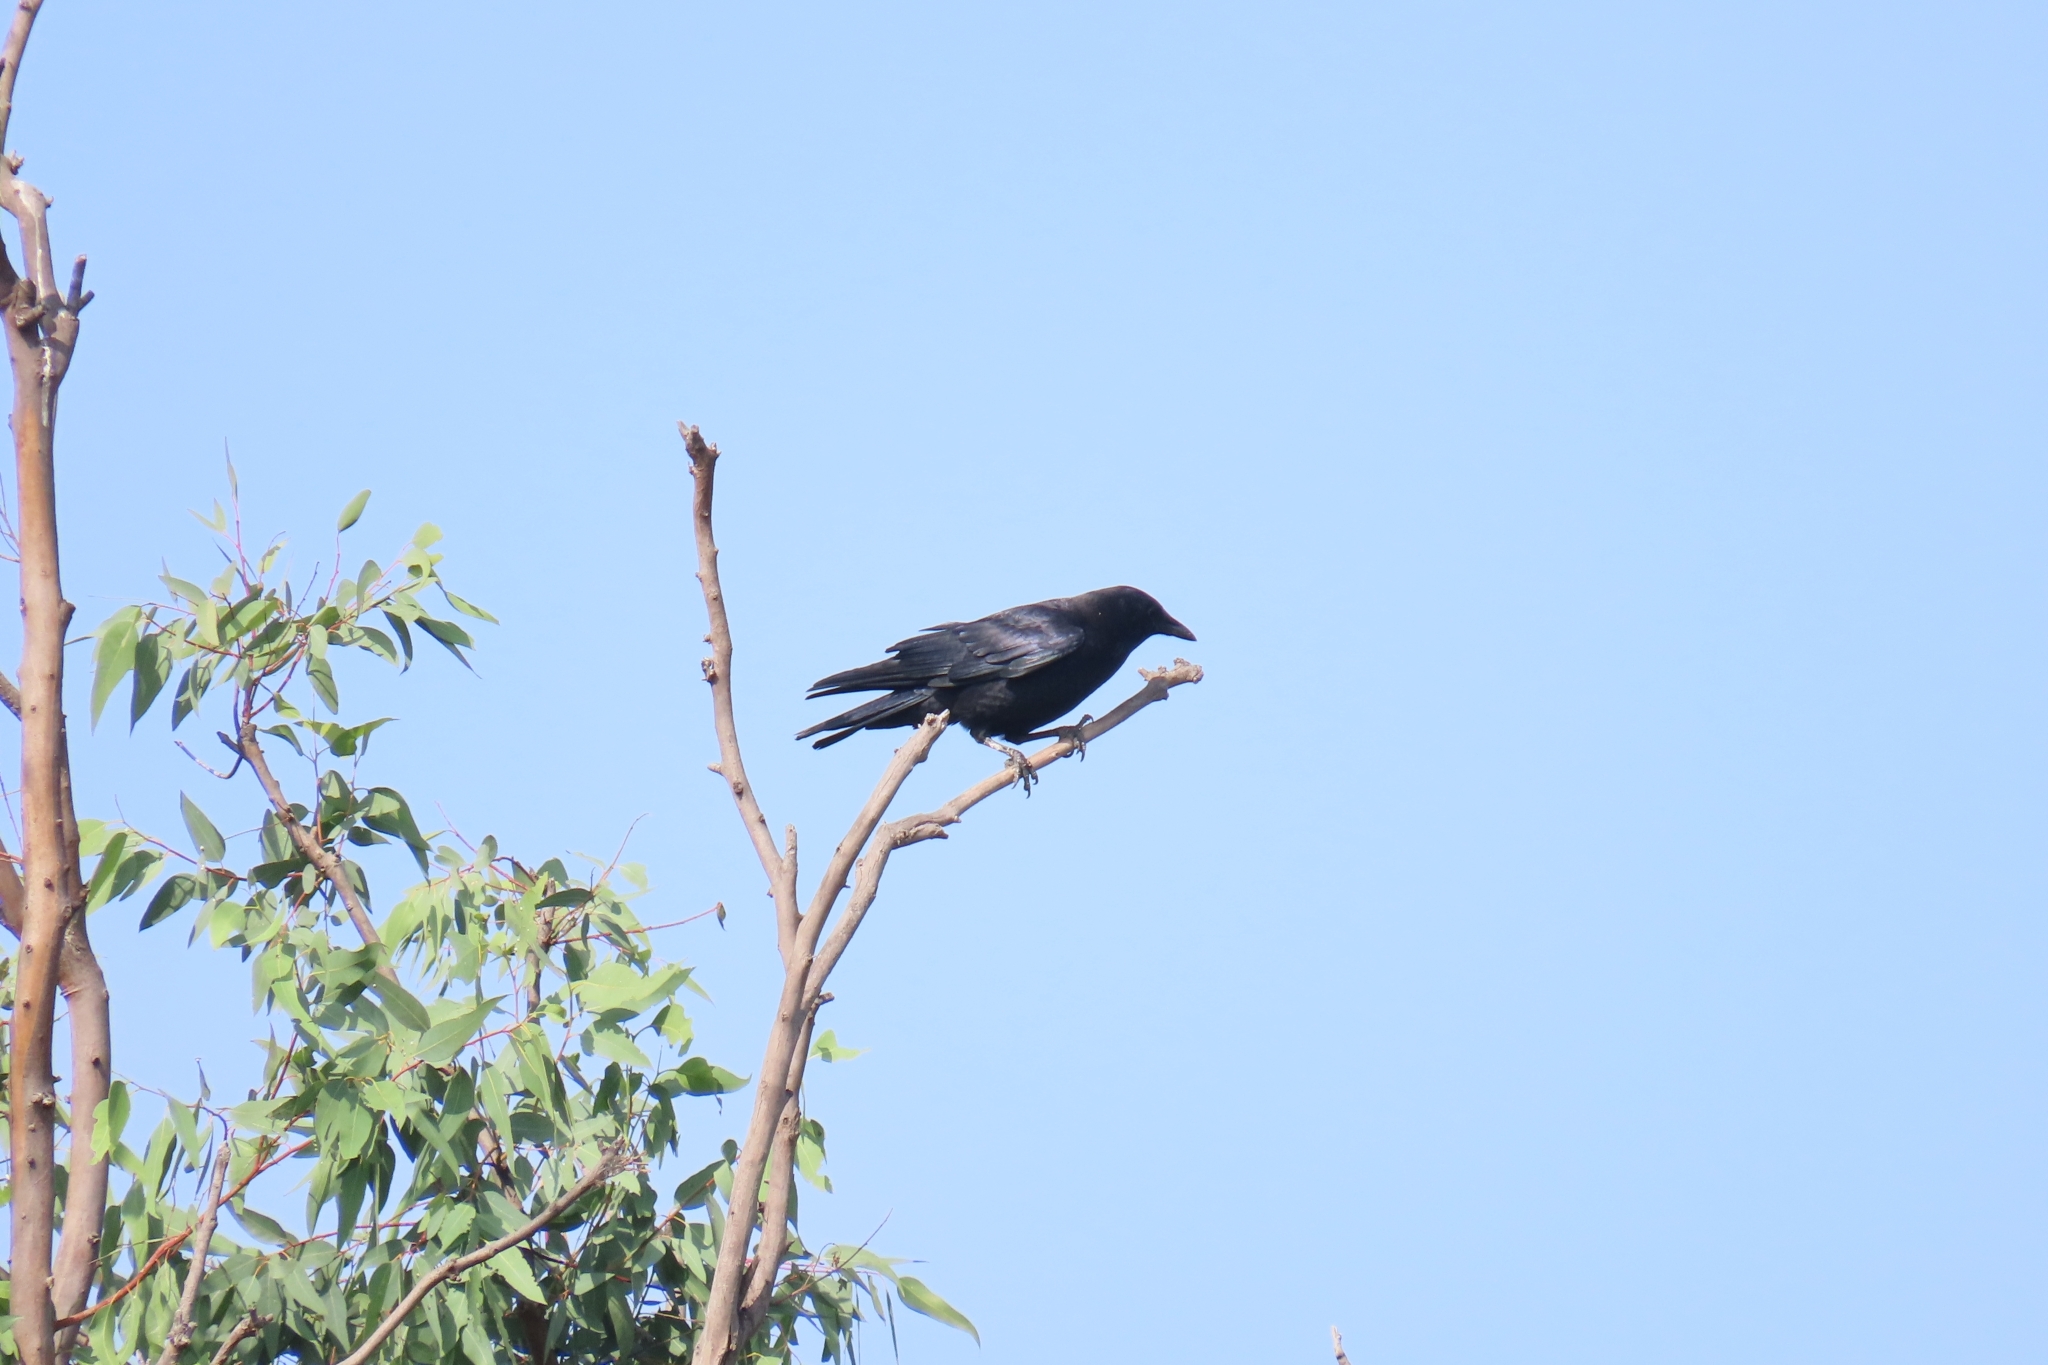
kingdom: Animalia
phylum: Chordata
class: Aves
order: Passeriformes
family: Corvidae
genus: Corvus
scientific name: Corvus brachyrhynchos
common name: American crow
